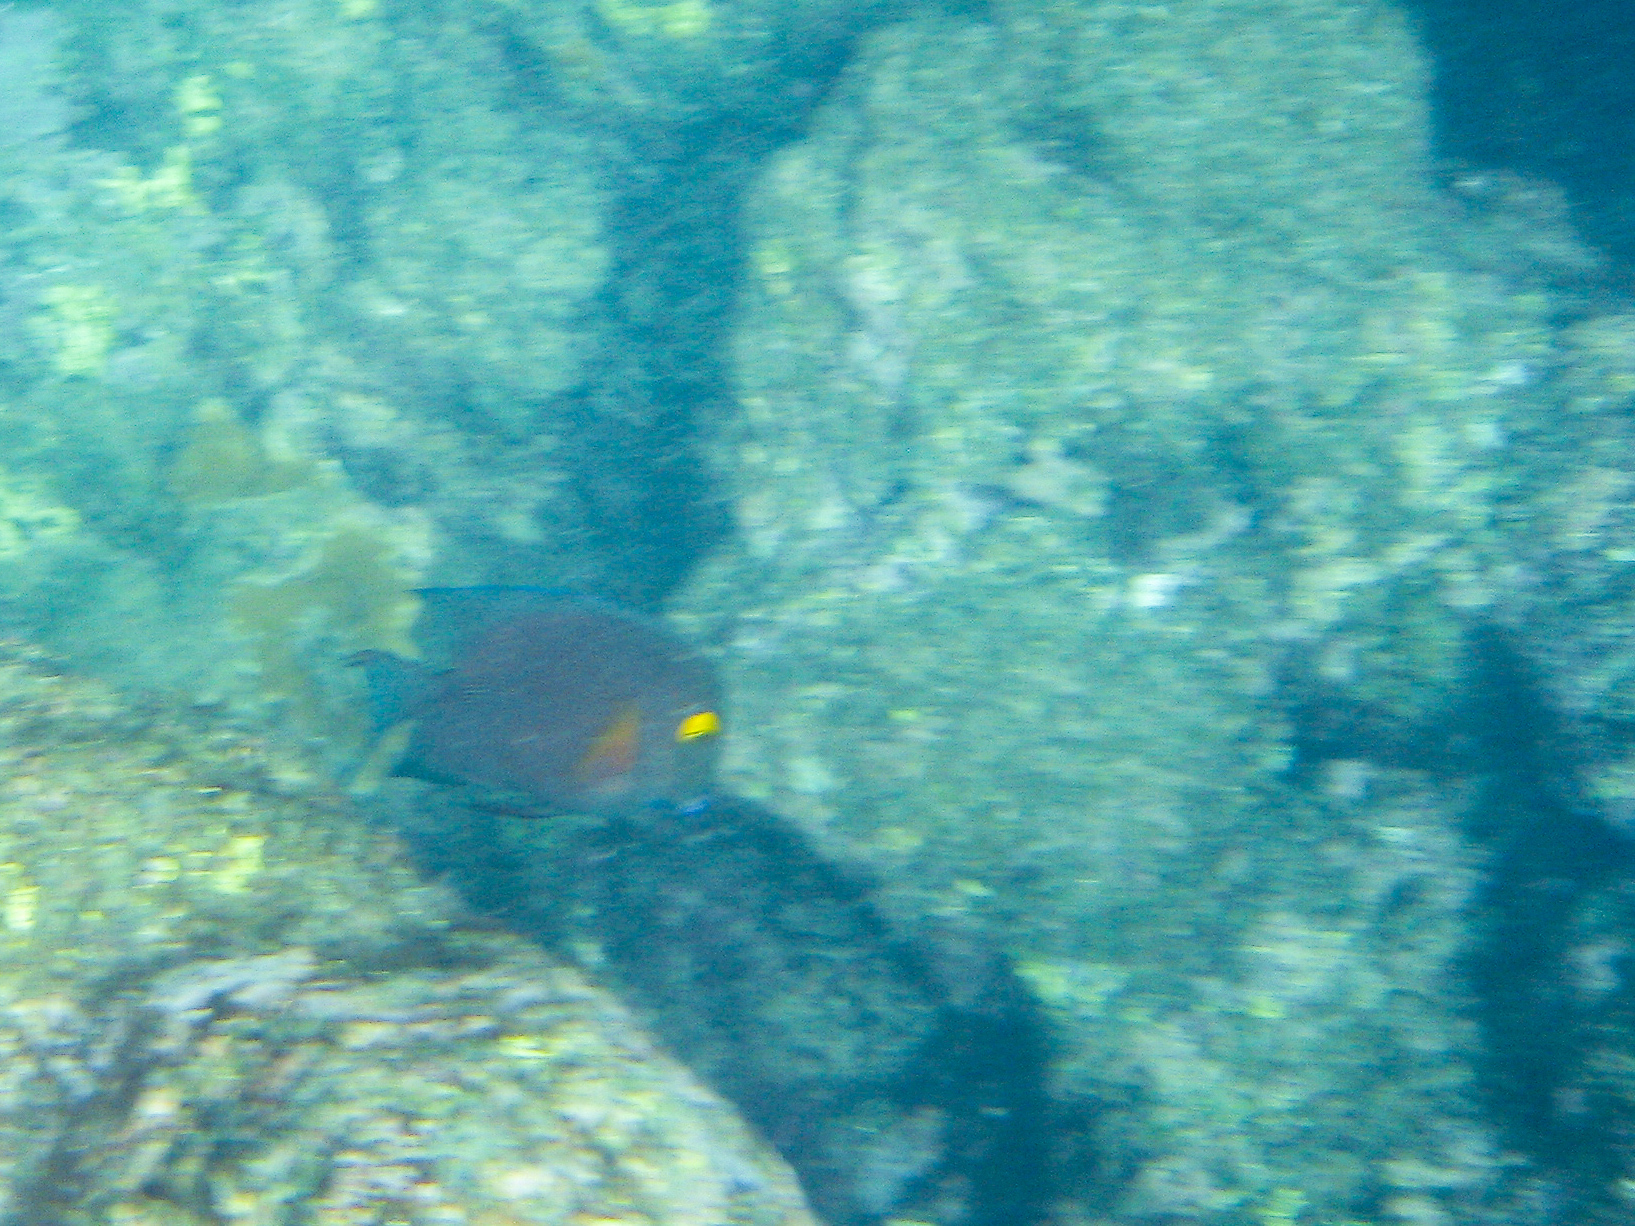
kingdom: Animalia
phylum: Chordata
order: Perciformes
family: Acanthuridae
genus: Ctenochaetus
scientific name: Ctenochaetus strigosus
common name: Bristletoothed surgeonfish
